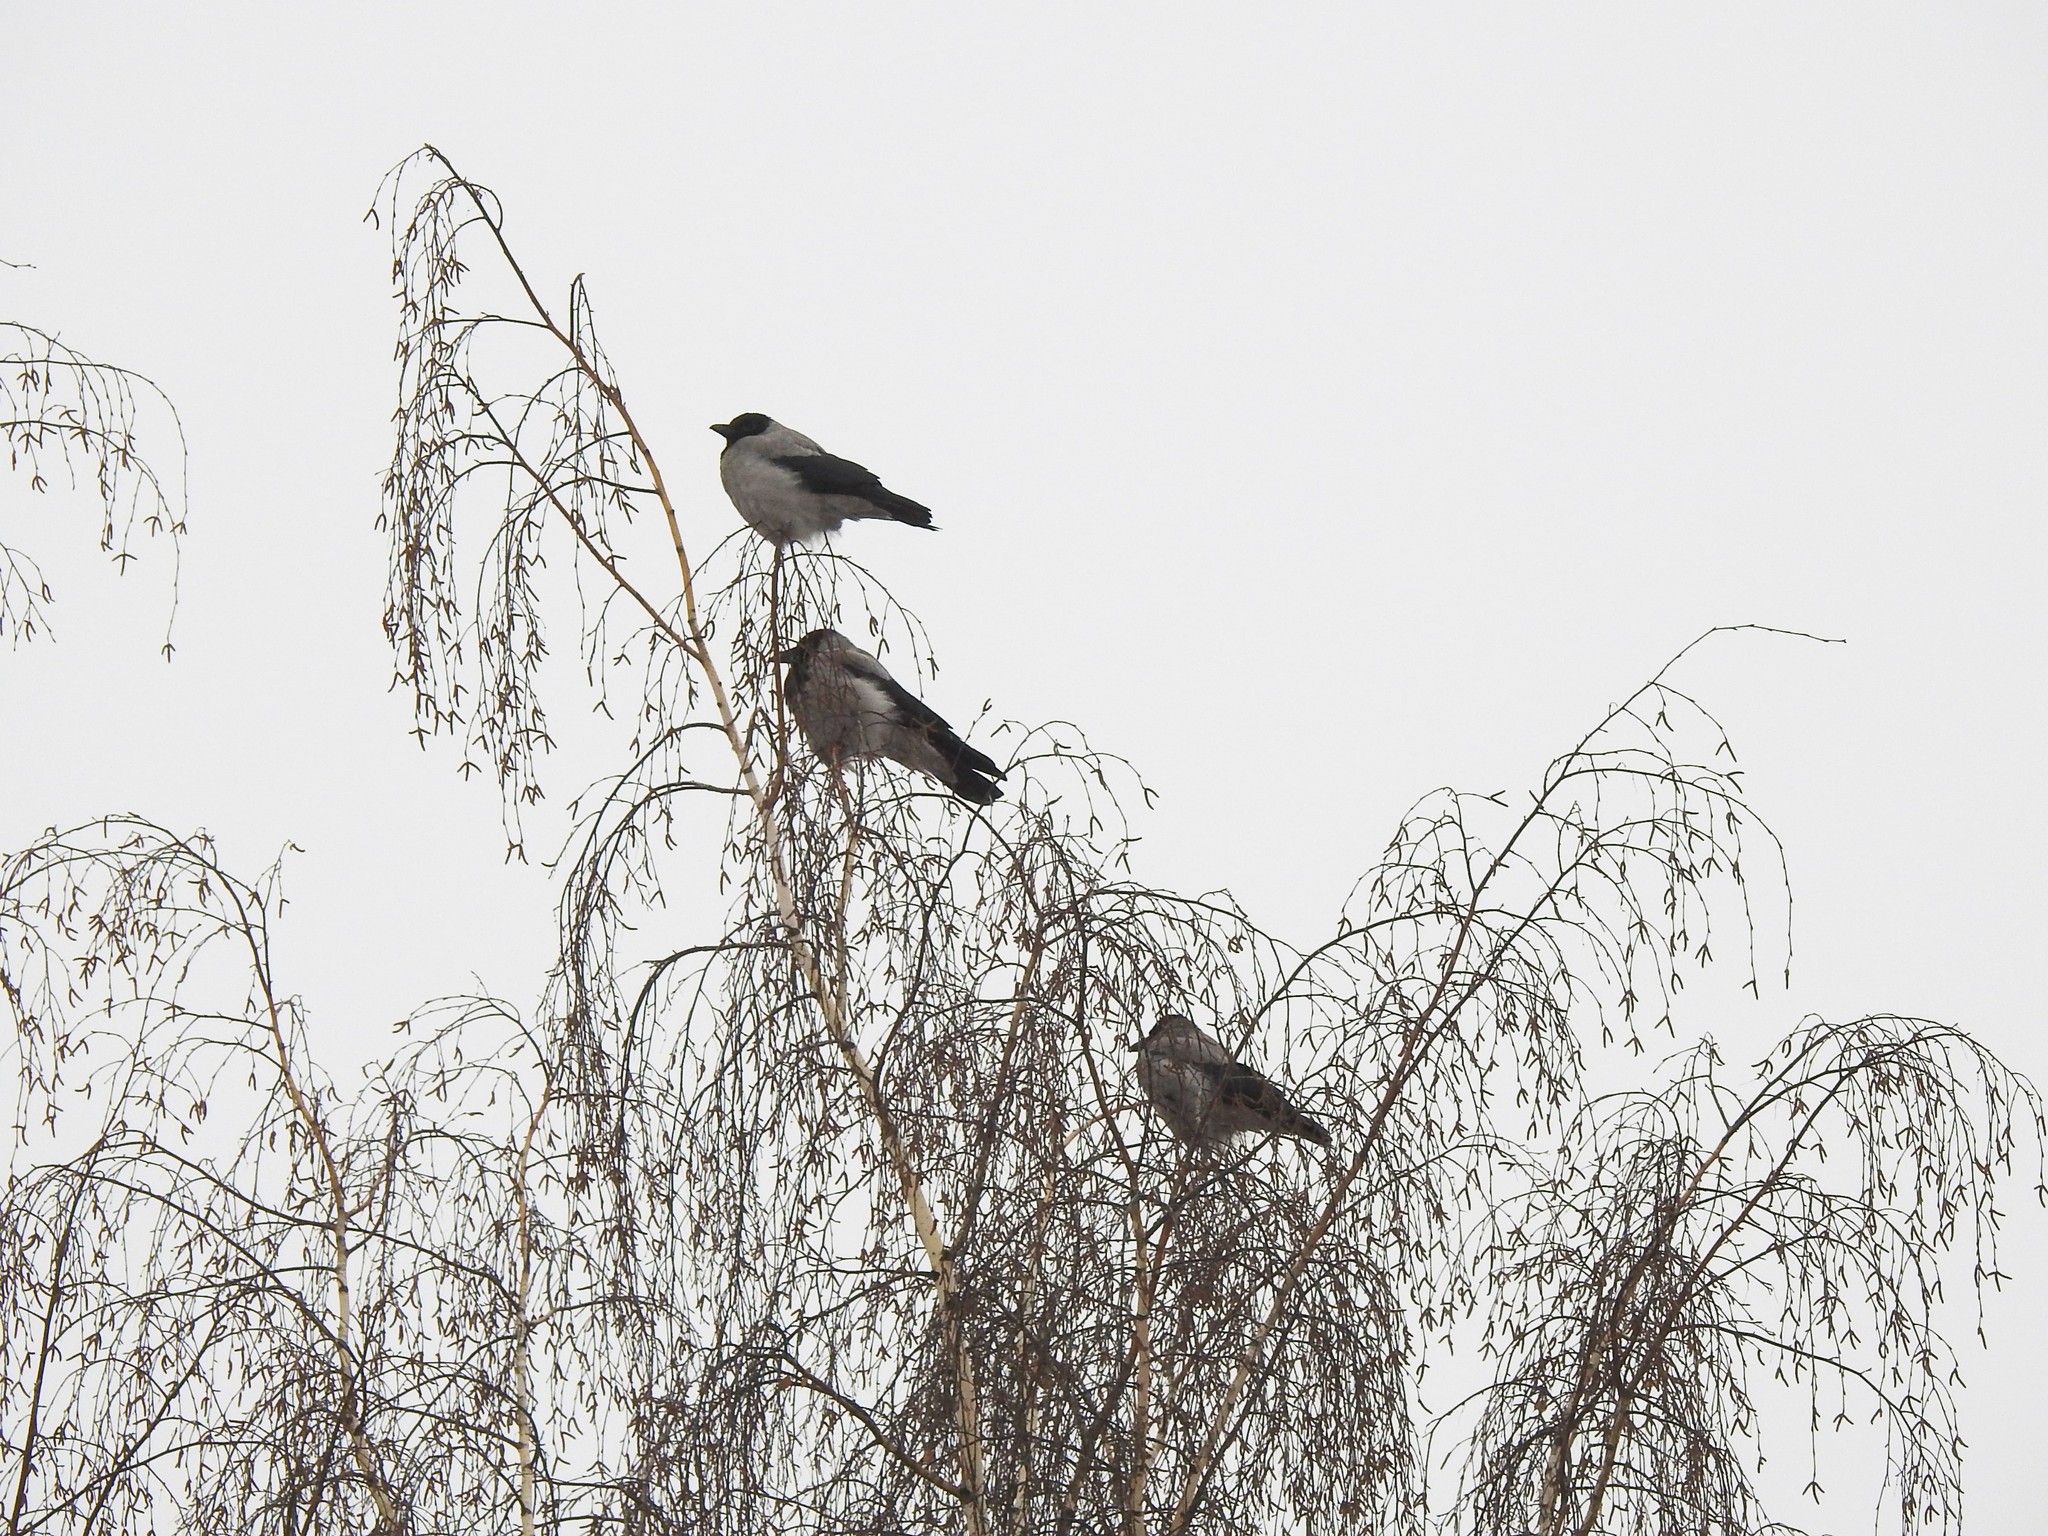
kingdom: Animalia
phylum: Chordata
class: Aves
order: Passeriformes
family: Corvidae
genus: Corvus
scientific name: Corvus cornix
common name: Hooded crow
